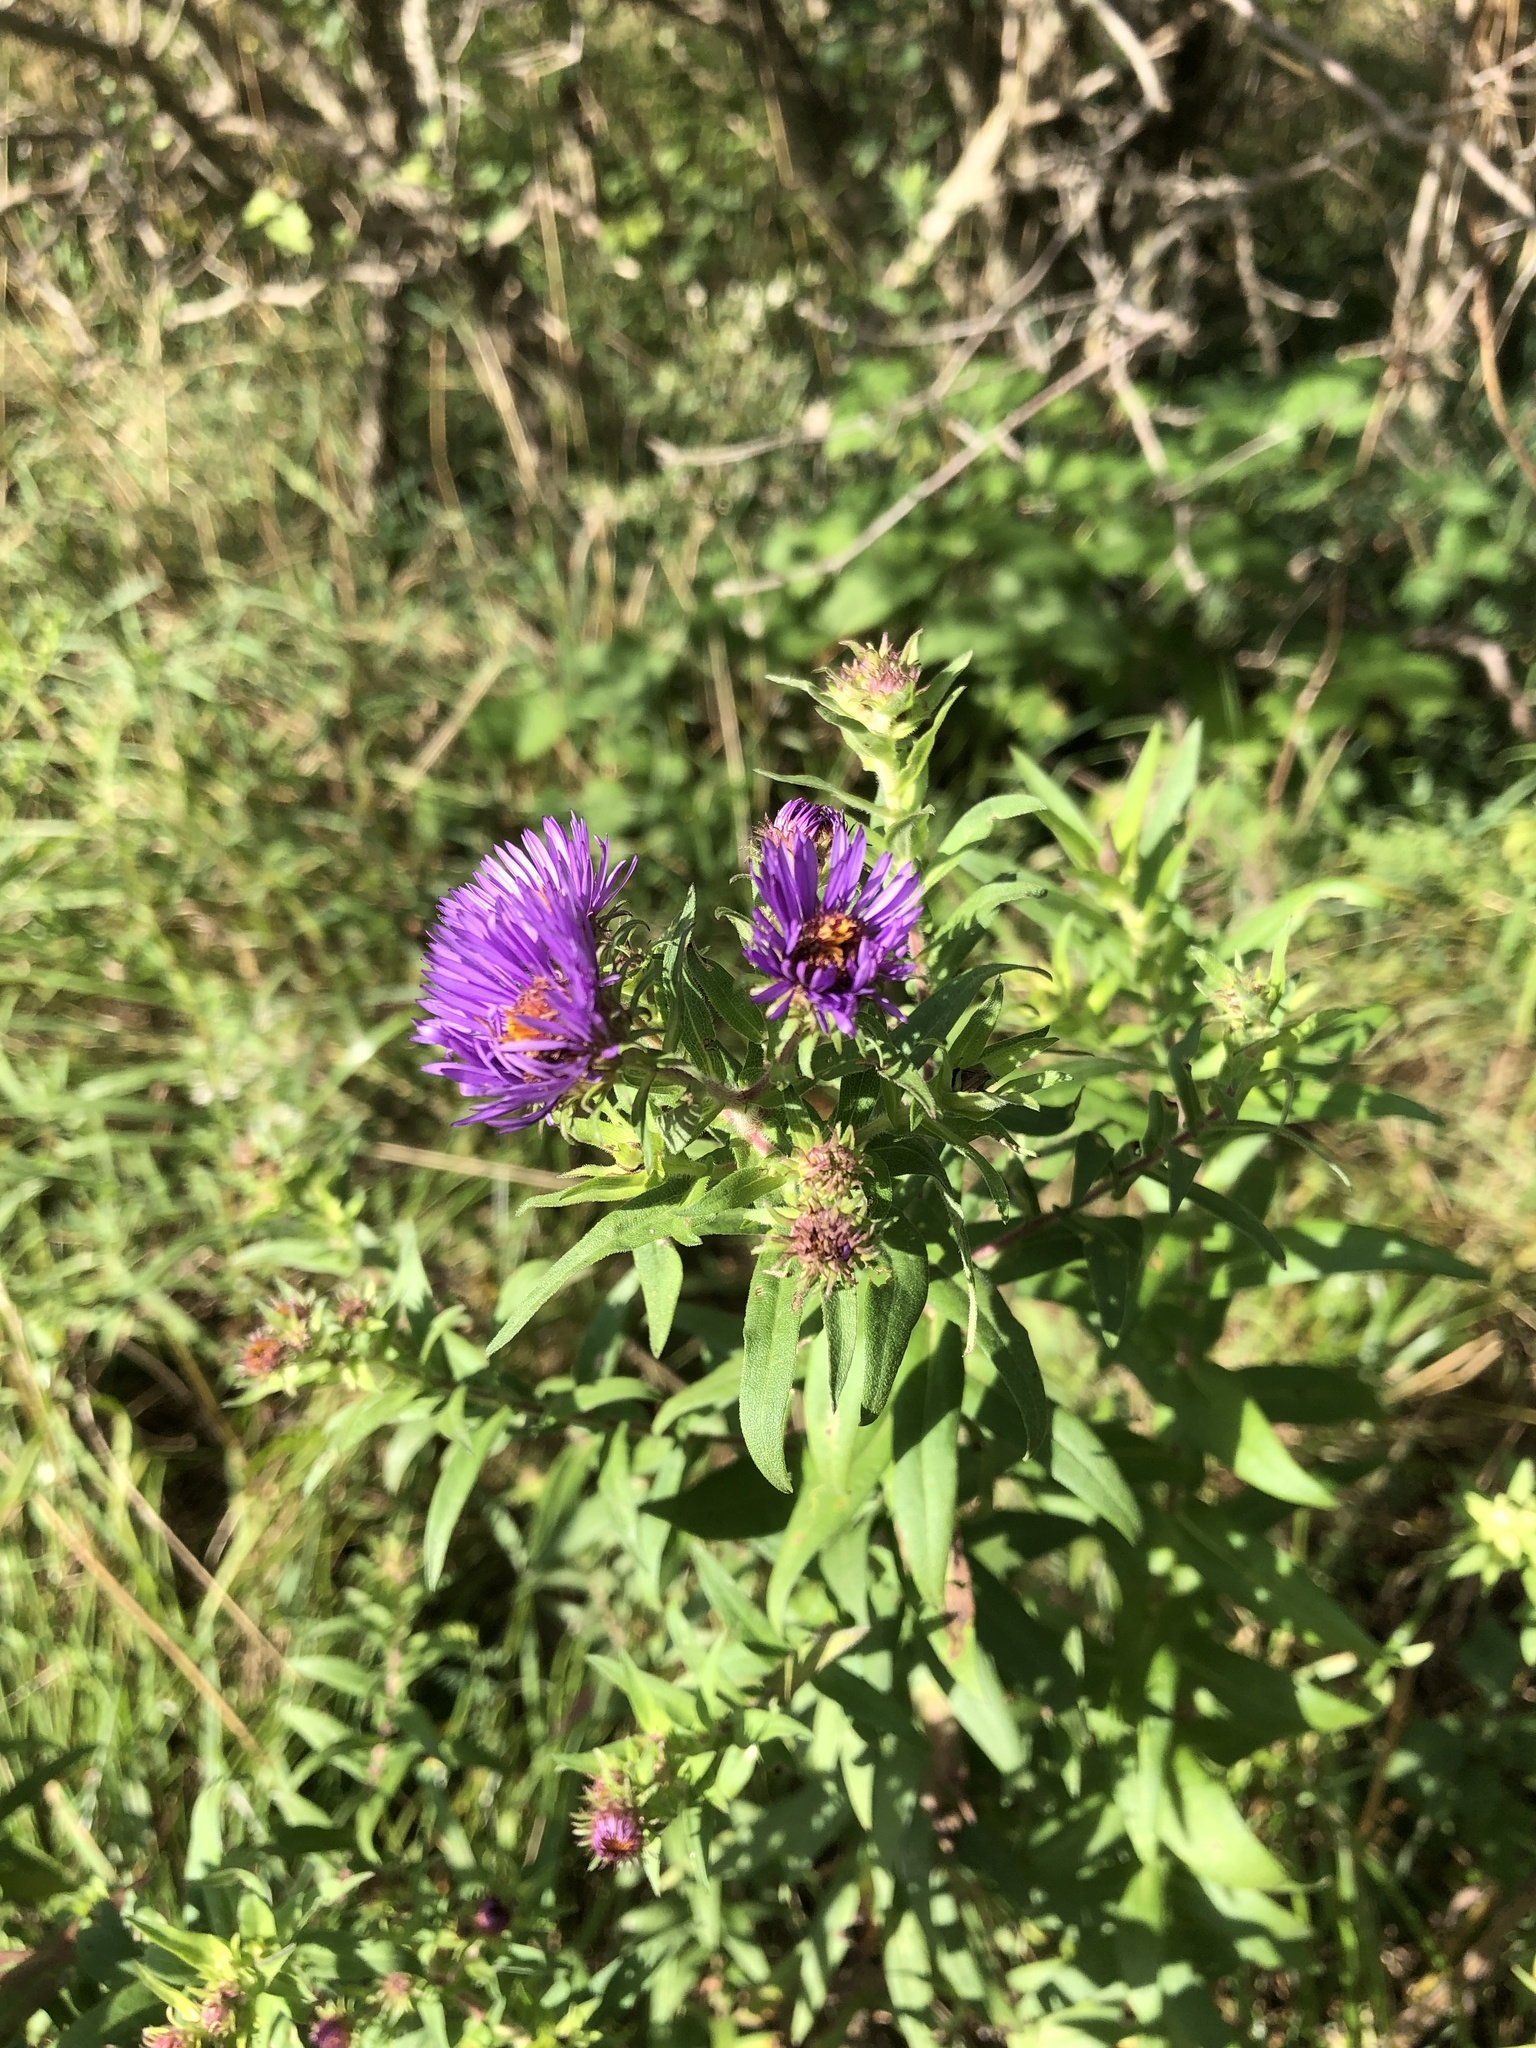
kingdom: Plantae
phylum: Tracheophyta
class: Magnoliopsida
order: Asterales
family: Asteraceae
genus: Symphyotrichum
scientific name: Symphyotrichum novae-angliae
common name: Michaelmas daisy
